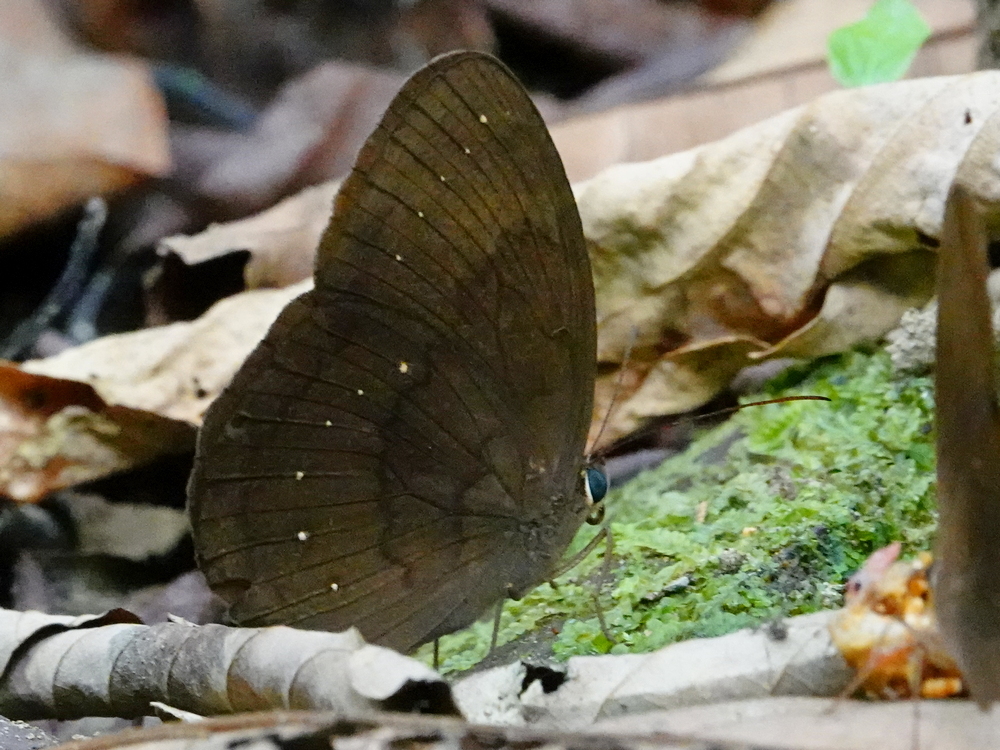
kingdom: Animalia
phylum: Arthropoda
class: Insecta
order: Lepidoptera
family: Nymphalidae
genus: Faunis
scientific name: Faunis canens
